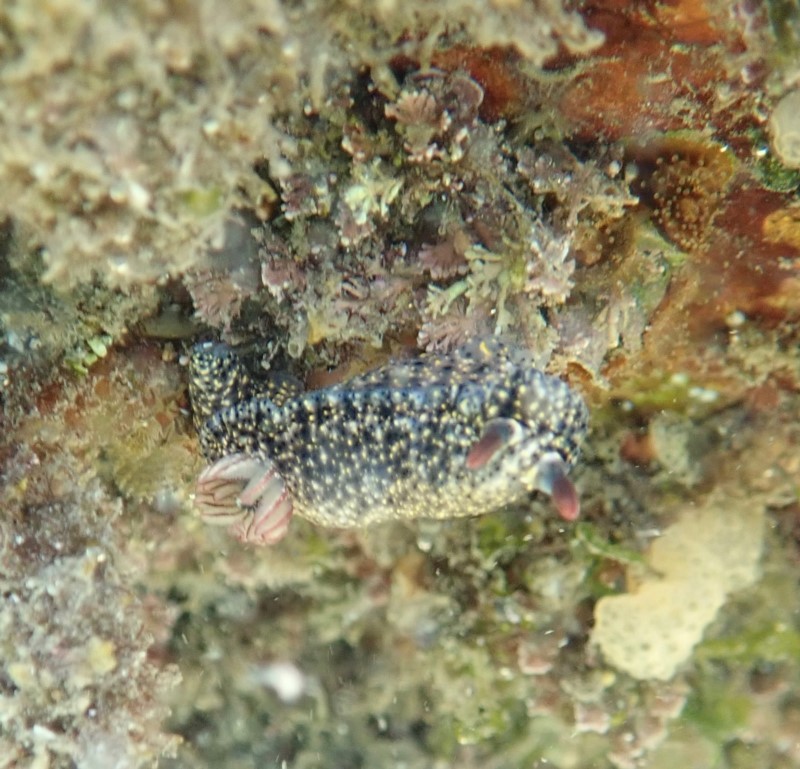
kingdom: Animalia
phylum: Mollusca
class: Gastropoda
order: Nudibranchia
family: Chromodorididae
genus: Hypselodoris
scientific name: Hypselodoris obscura
